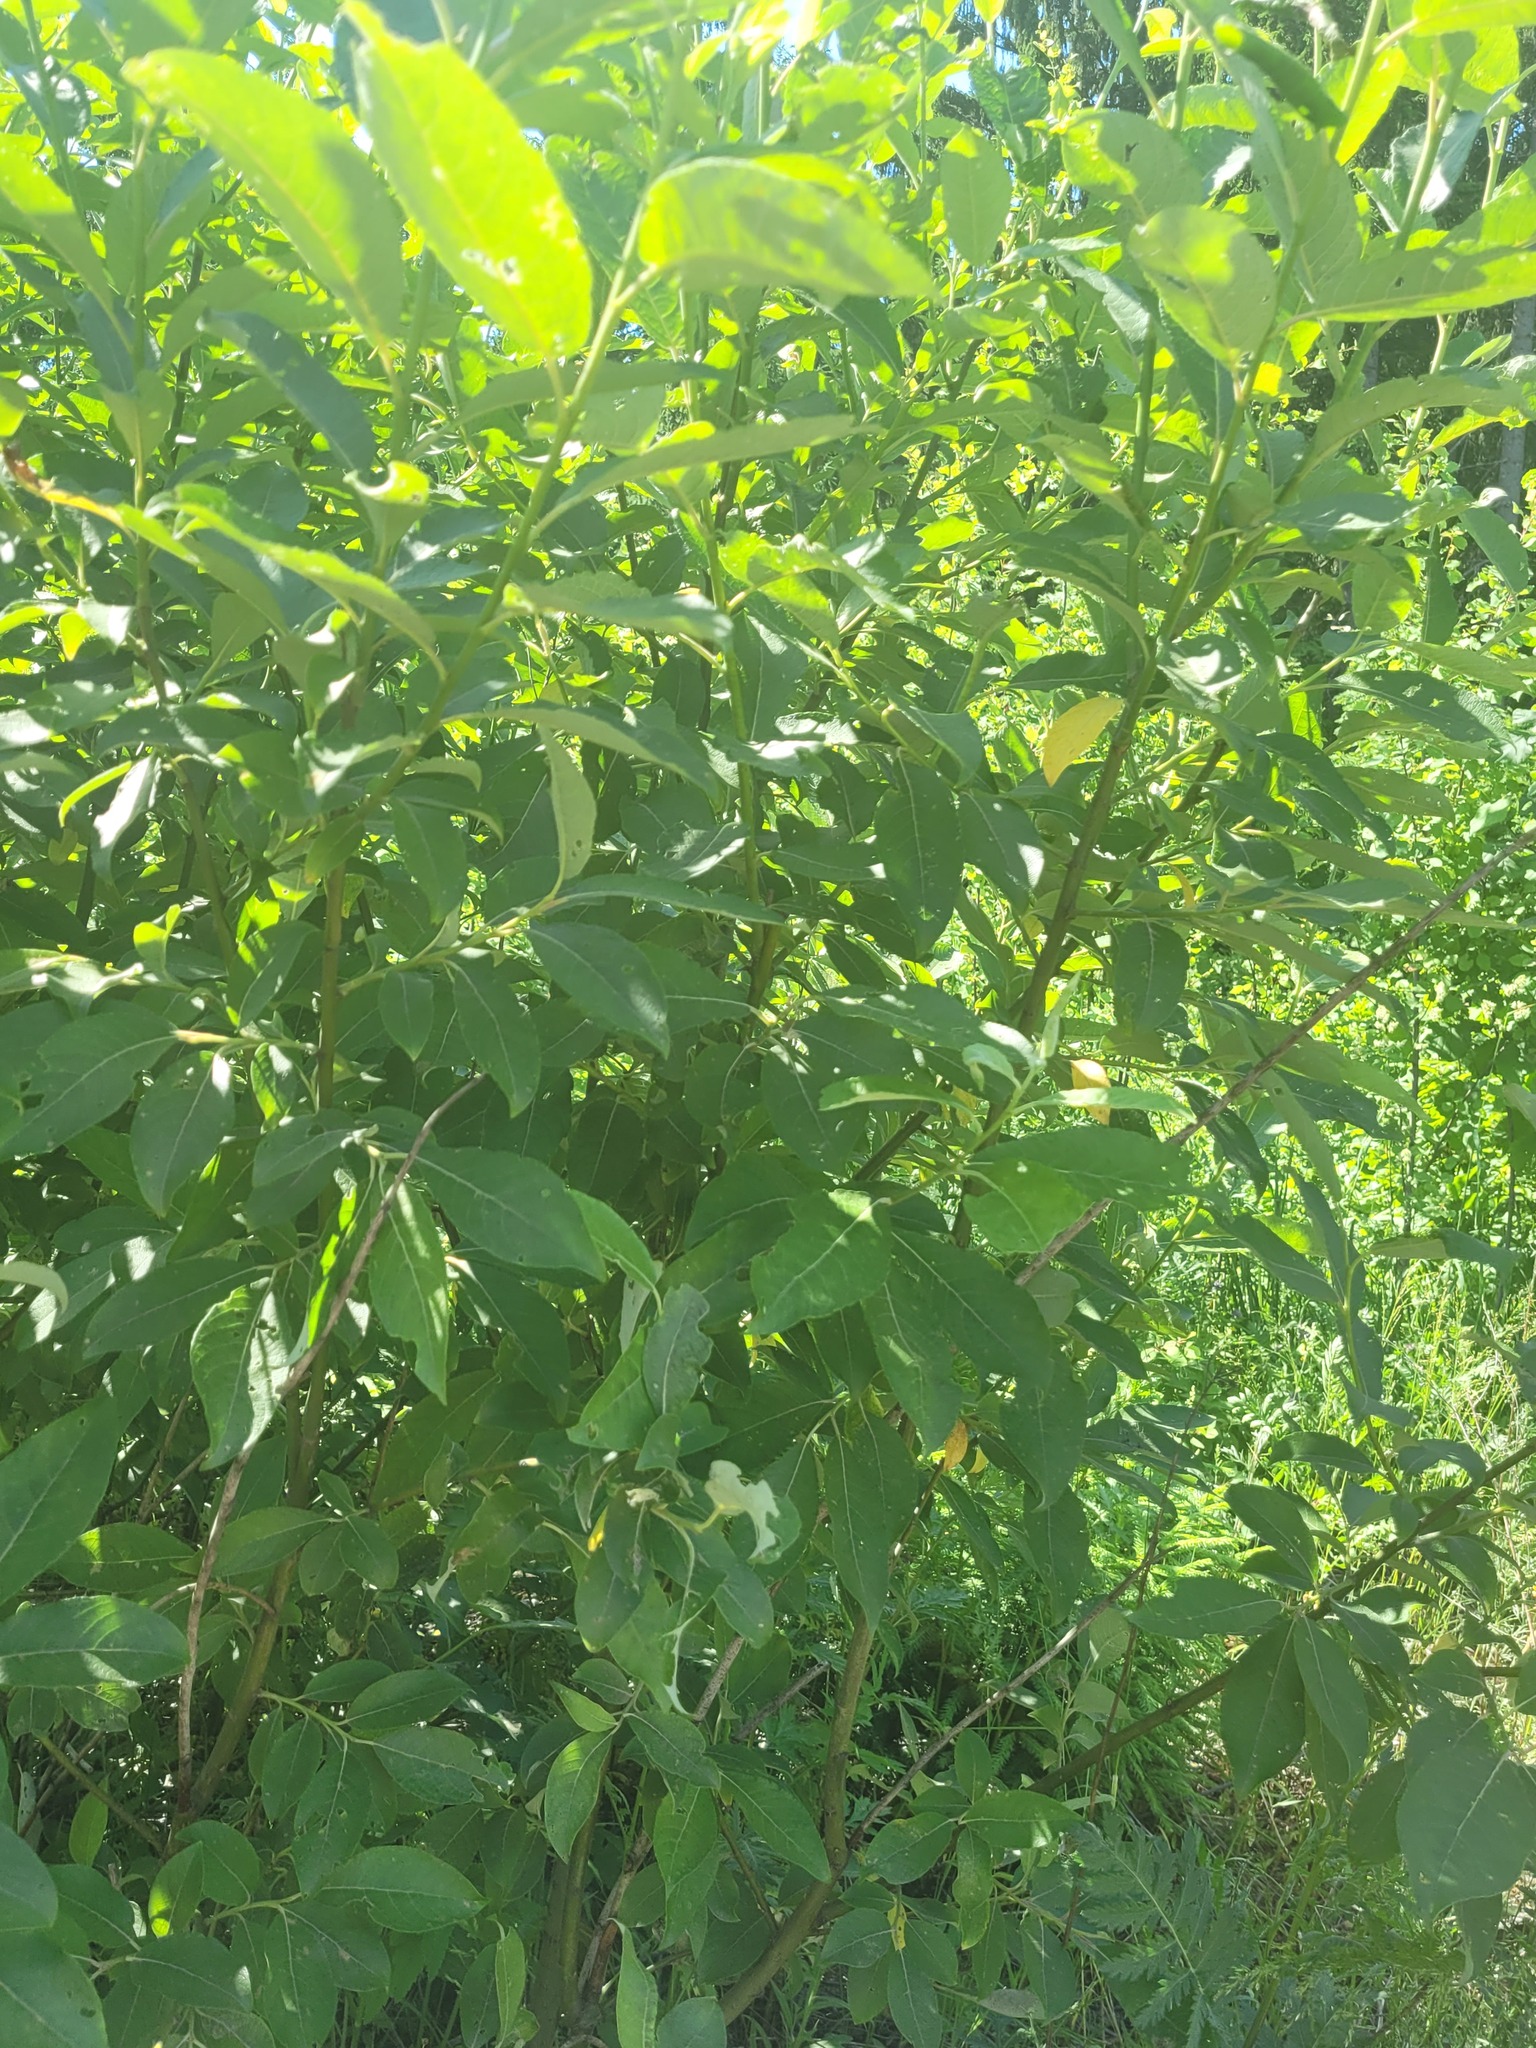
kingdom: Plantae
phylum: Tracheophyta
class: Magnoliopsida
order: Malpighiales
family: Salicaceae
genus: Salix
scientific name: Salix caprea
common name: Goat willow
